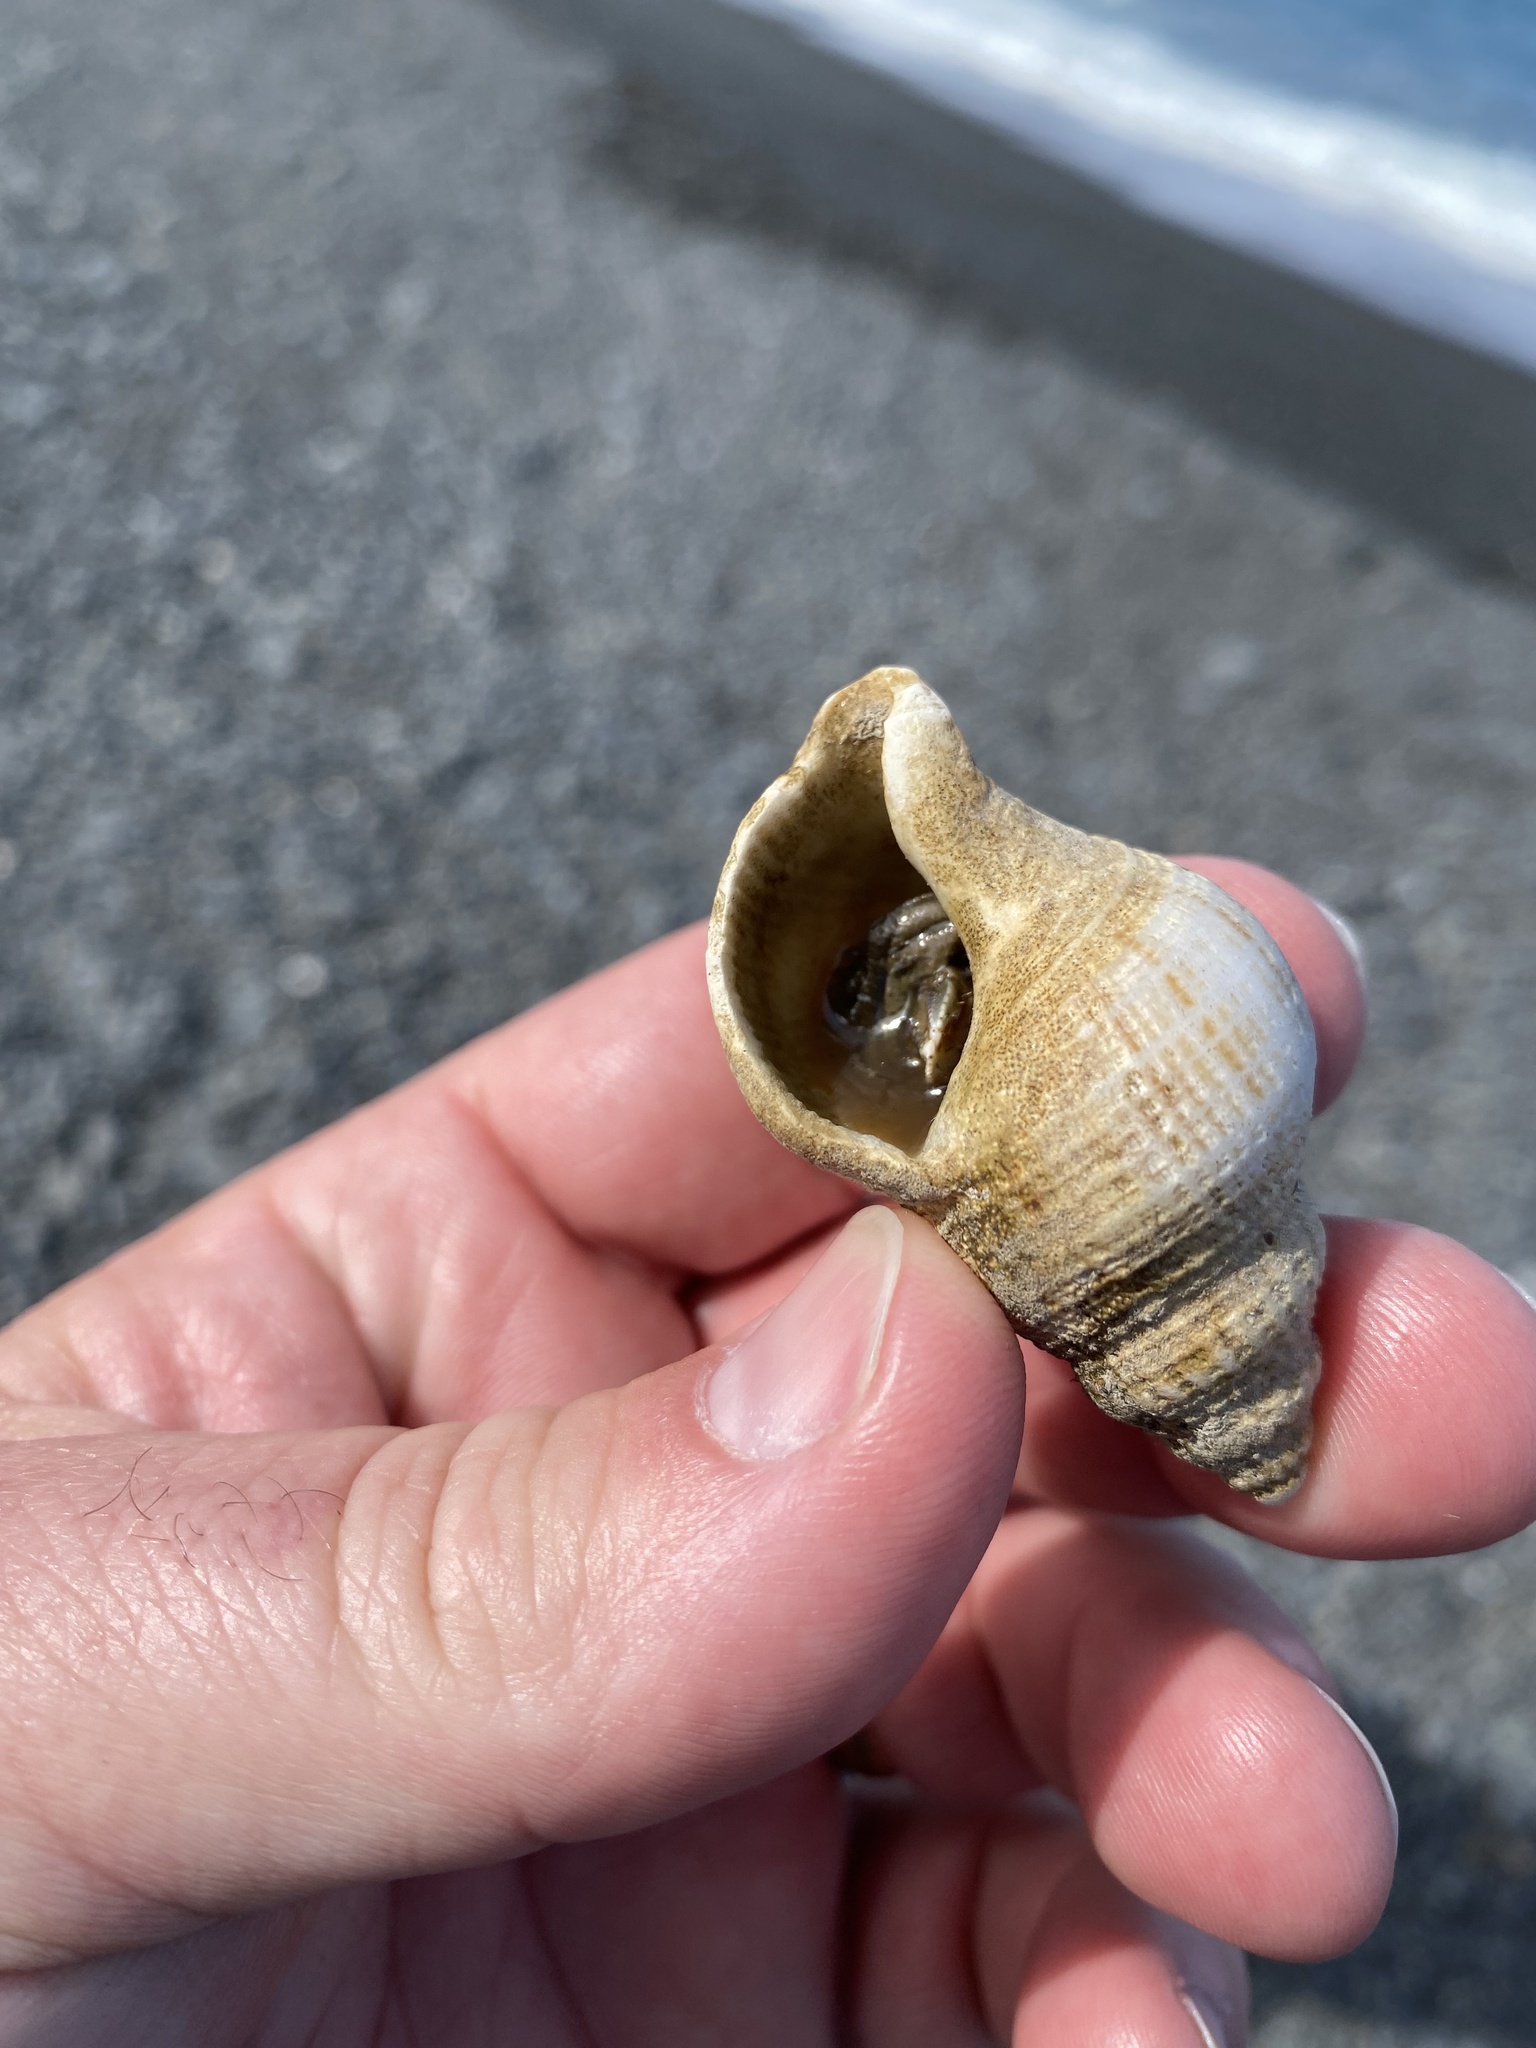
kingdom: Animalia
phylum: Mollusca
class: Gastropoda
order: Neogastropoda
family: Prosiphonidae
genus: Austrofusus
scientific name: Austrofusus glans
